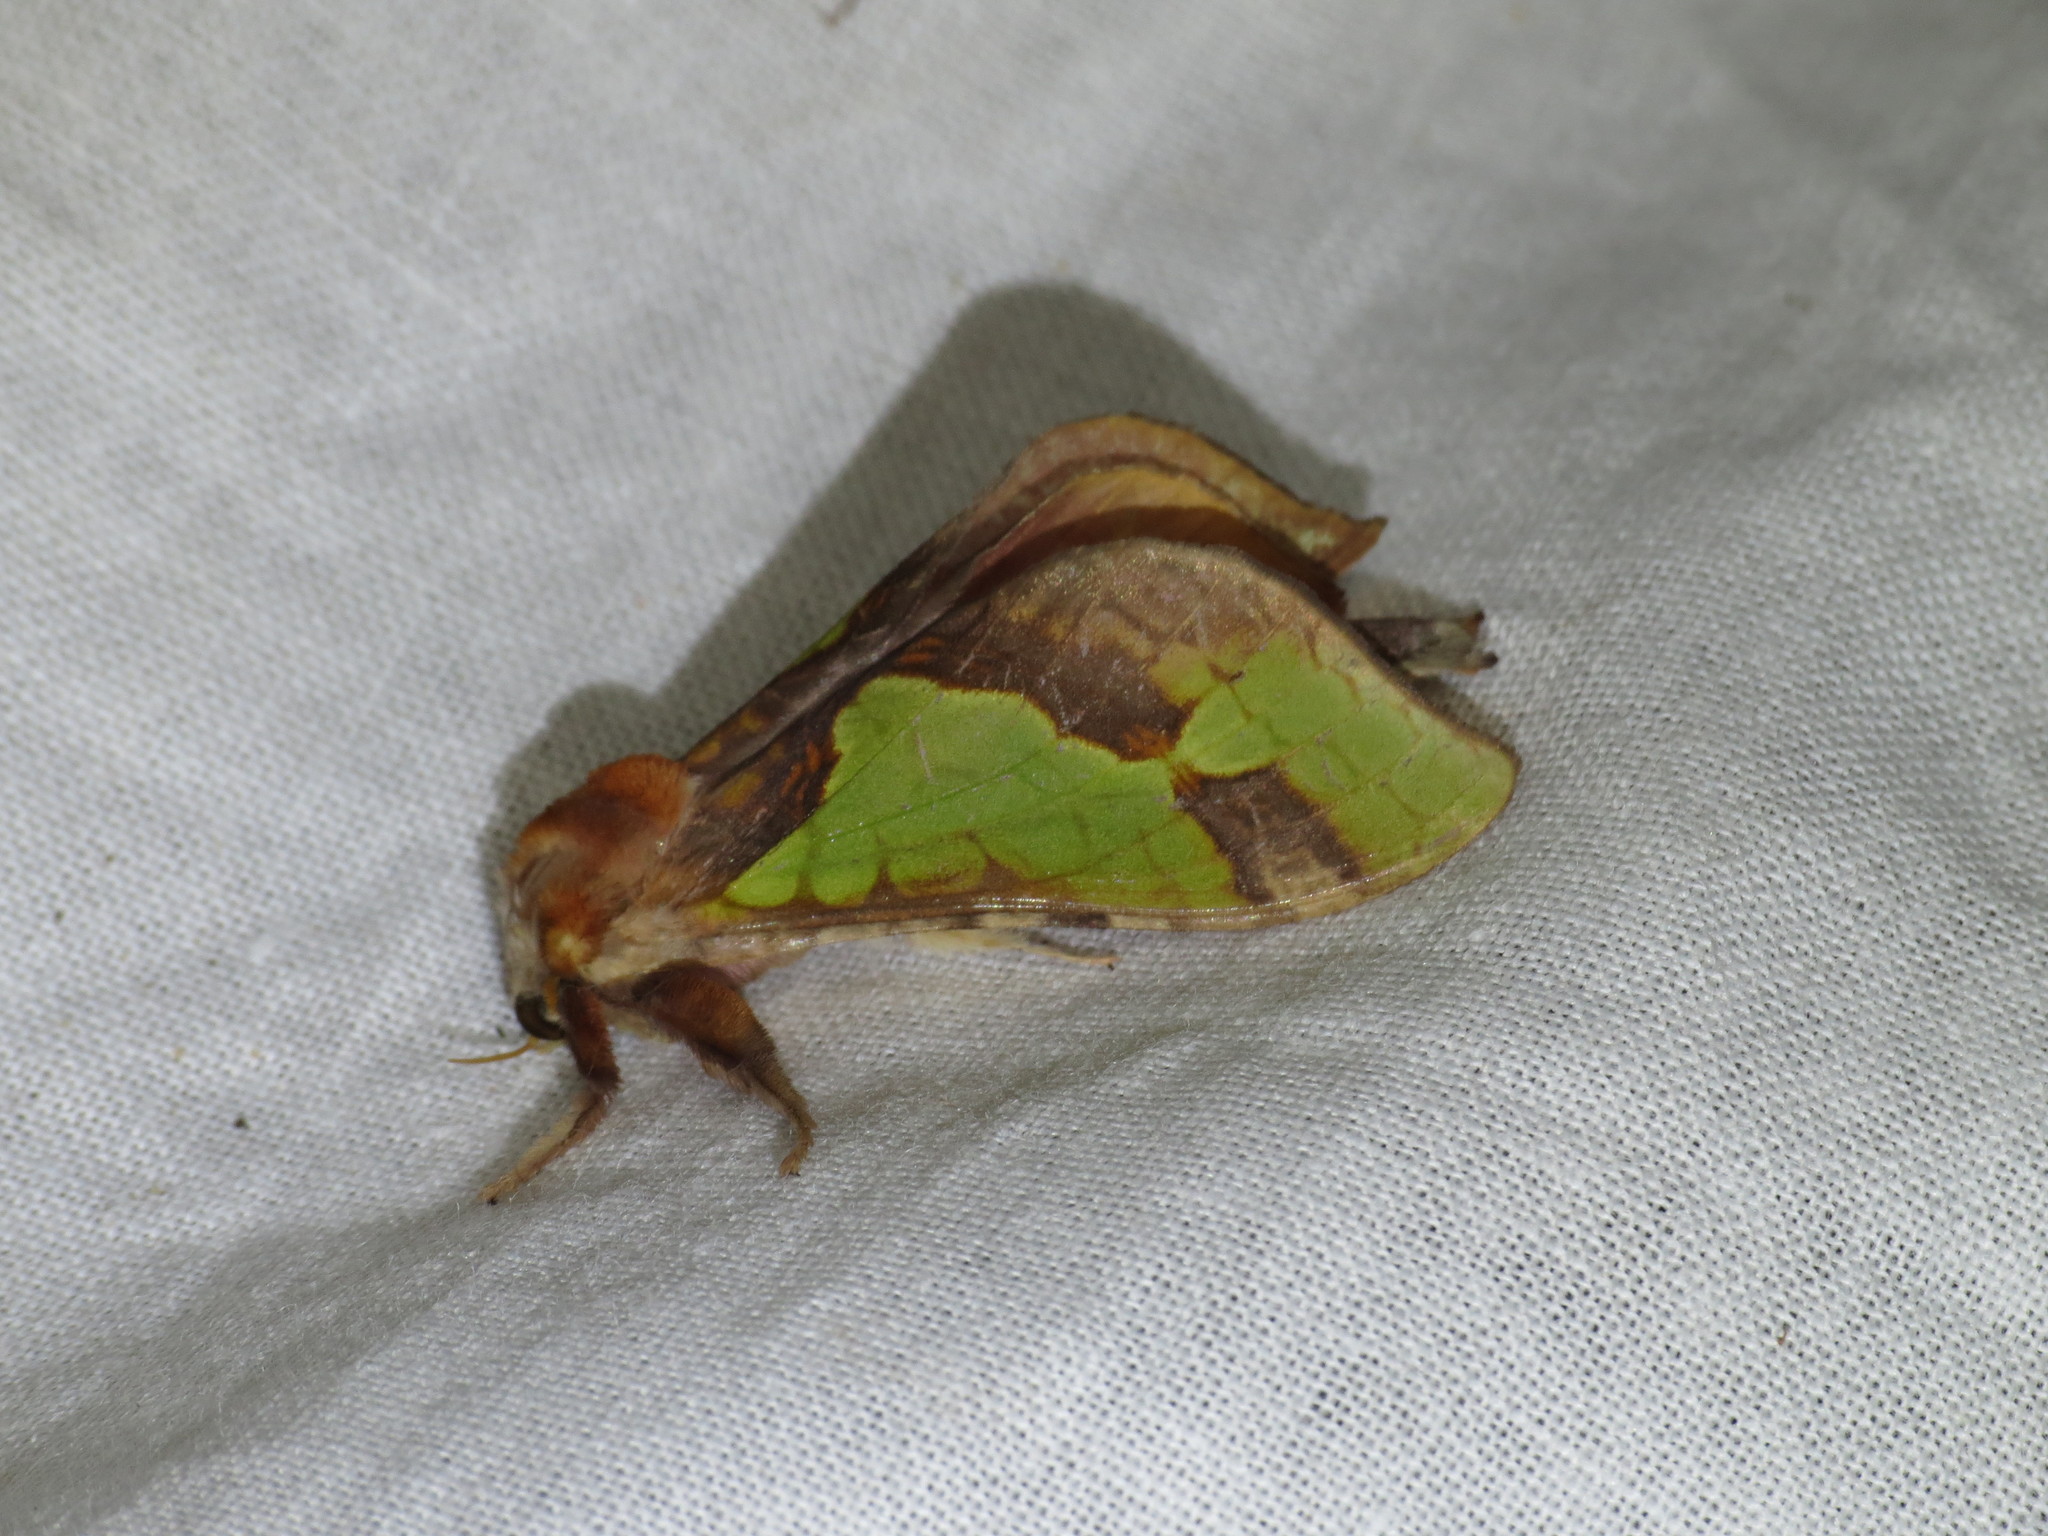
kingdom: Animalia
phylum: Arthropoda
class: Insecta
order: Lepidoptera
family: Hepialidae
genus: Aenetus
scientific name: Aenetus ligniveren
